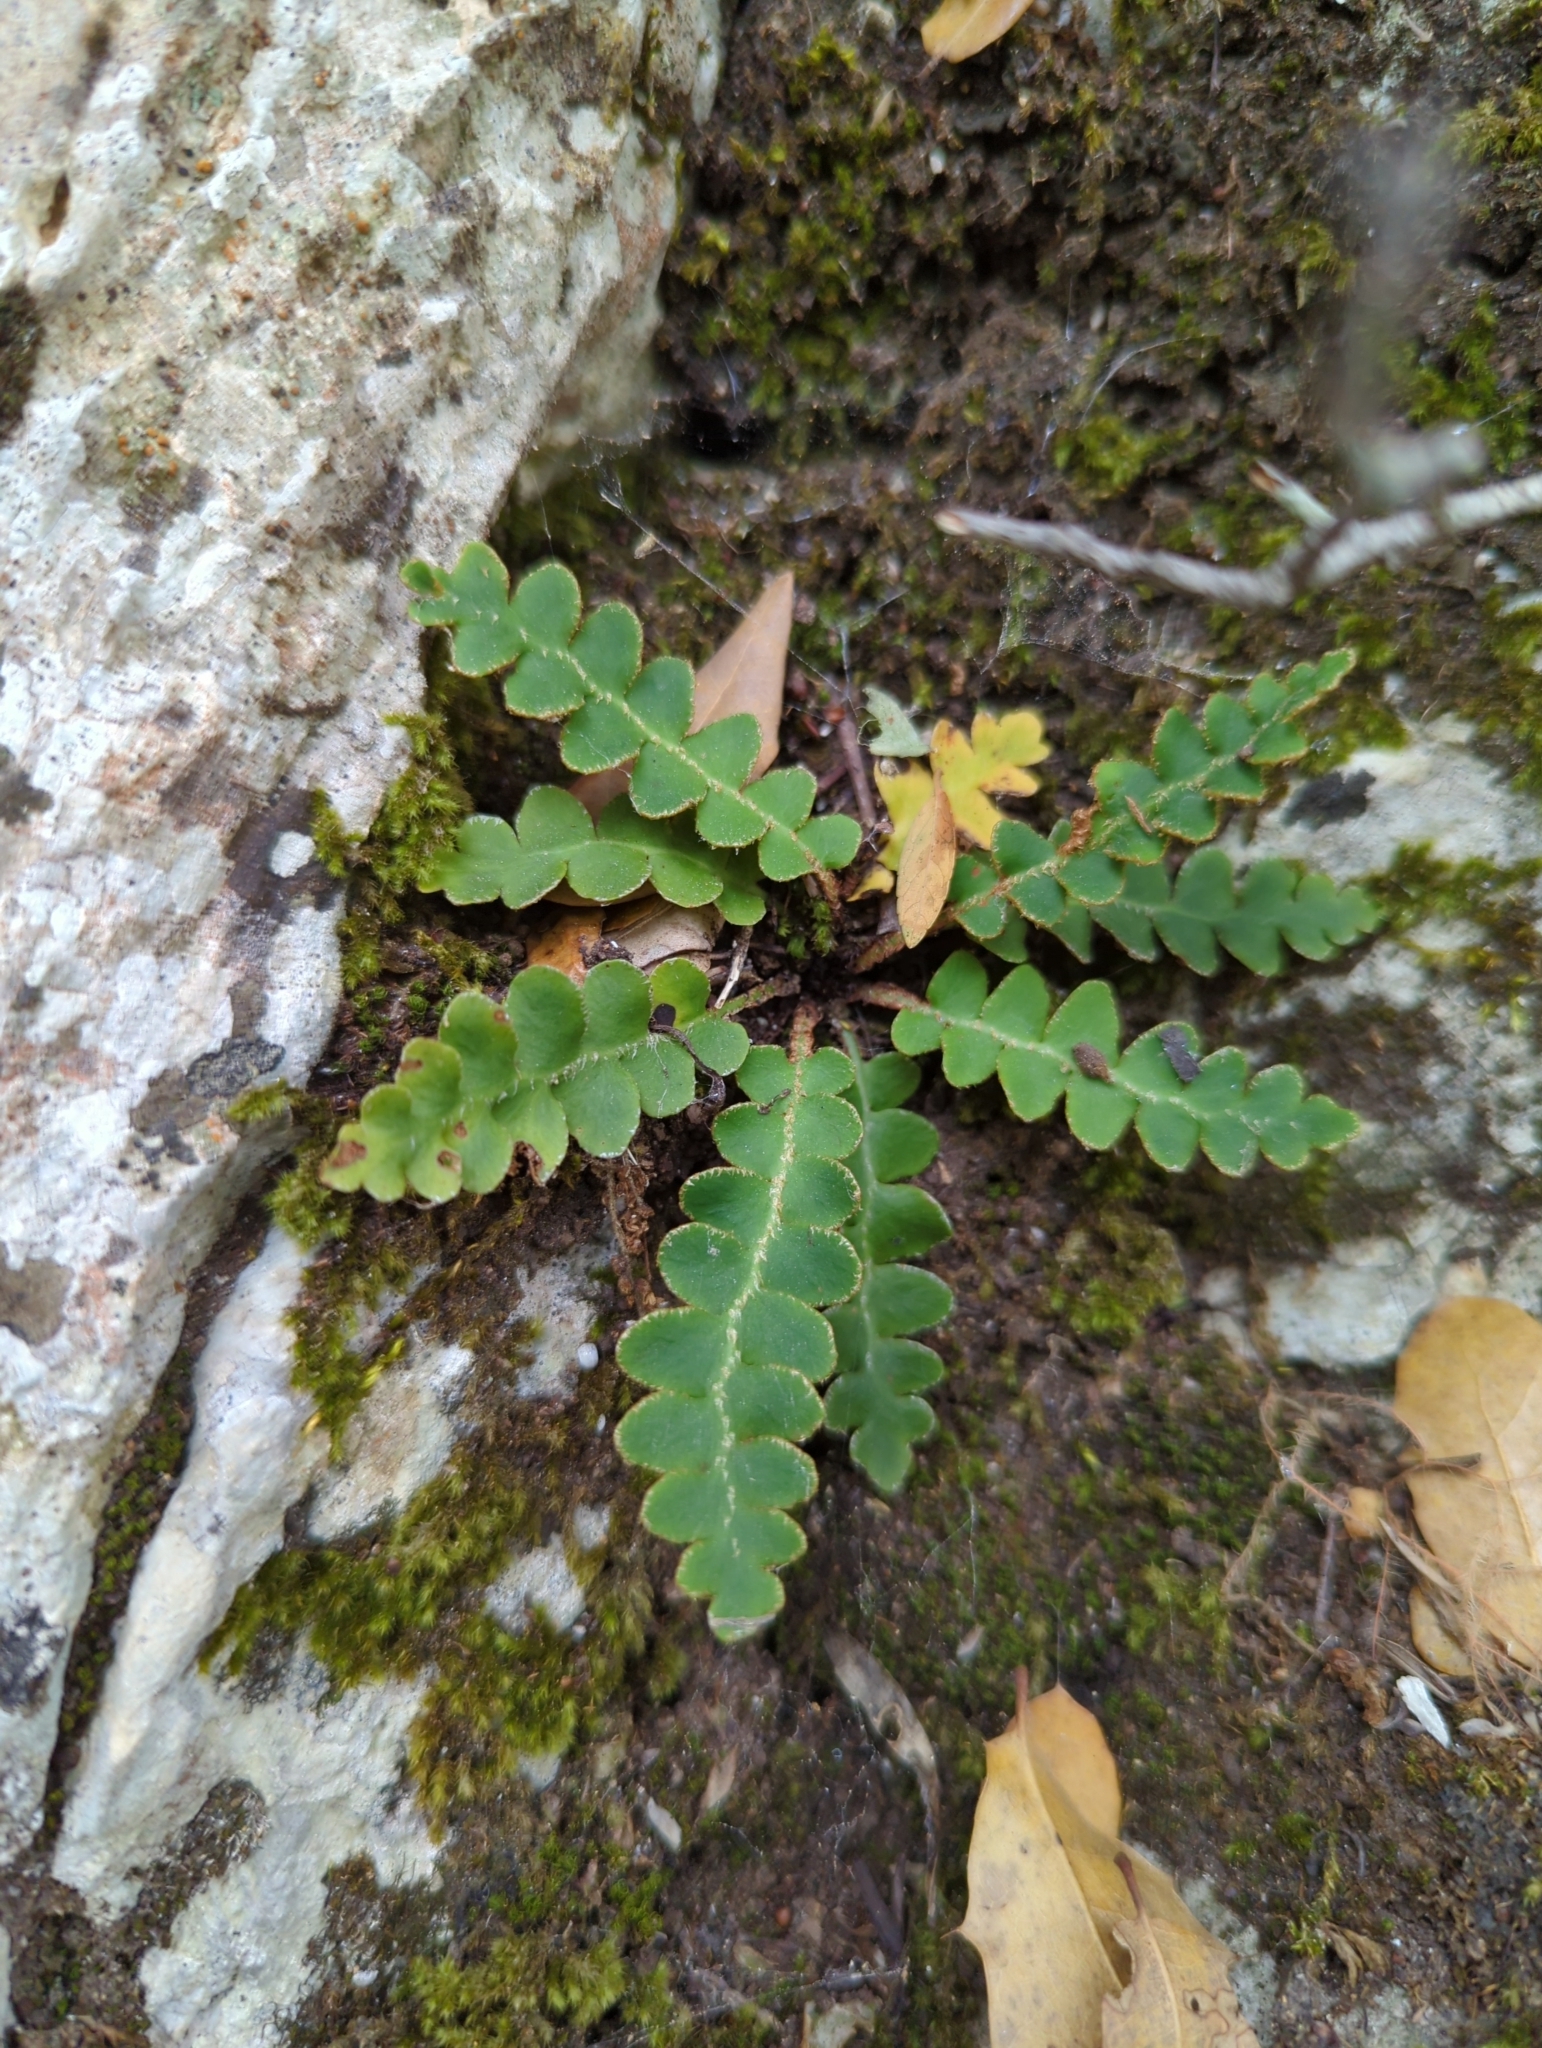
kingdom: Plantae
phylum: Tracheophyta
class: Polypodiopsida
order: Polypodiales
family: Aspleniaceae
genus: Asplenium
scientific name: Asplenium ceterach
